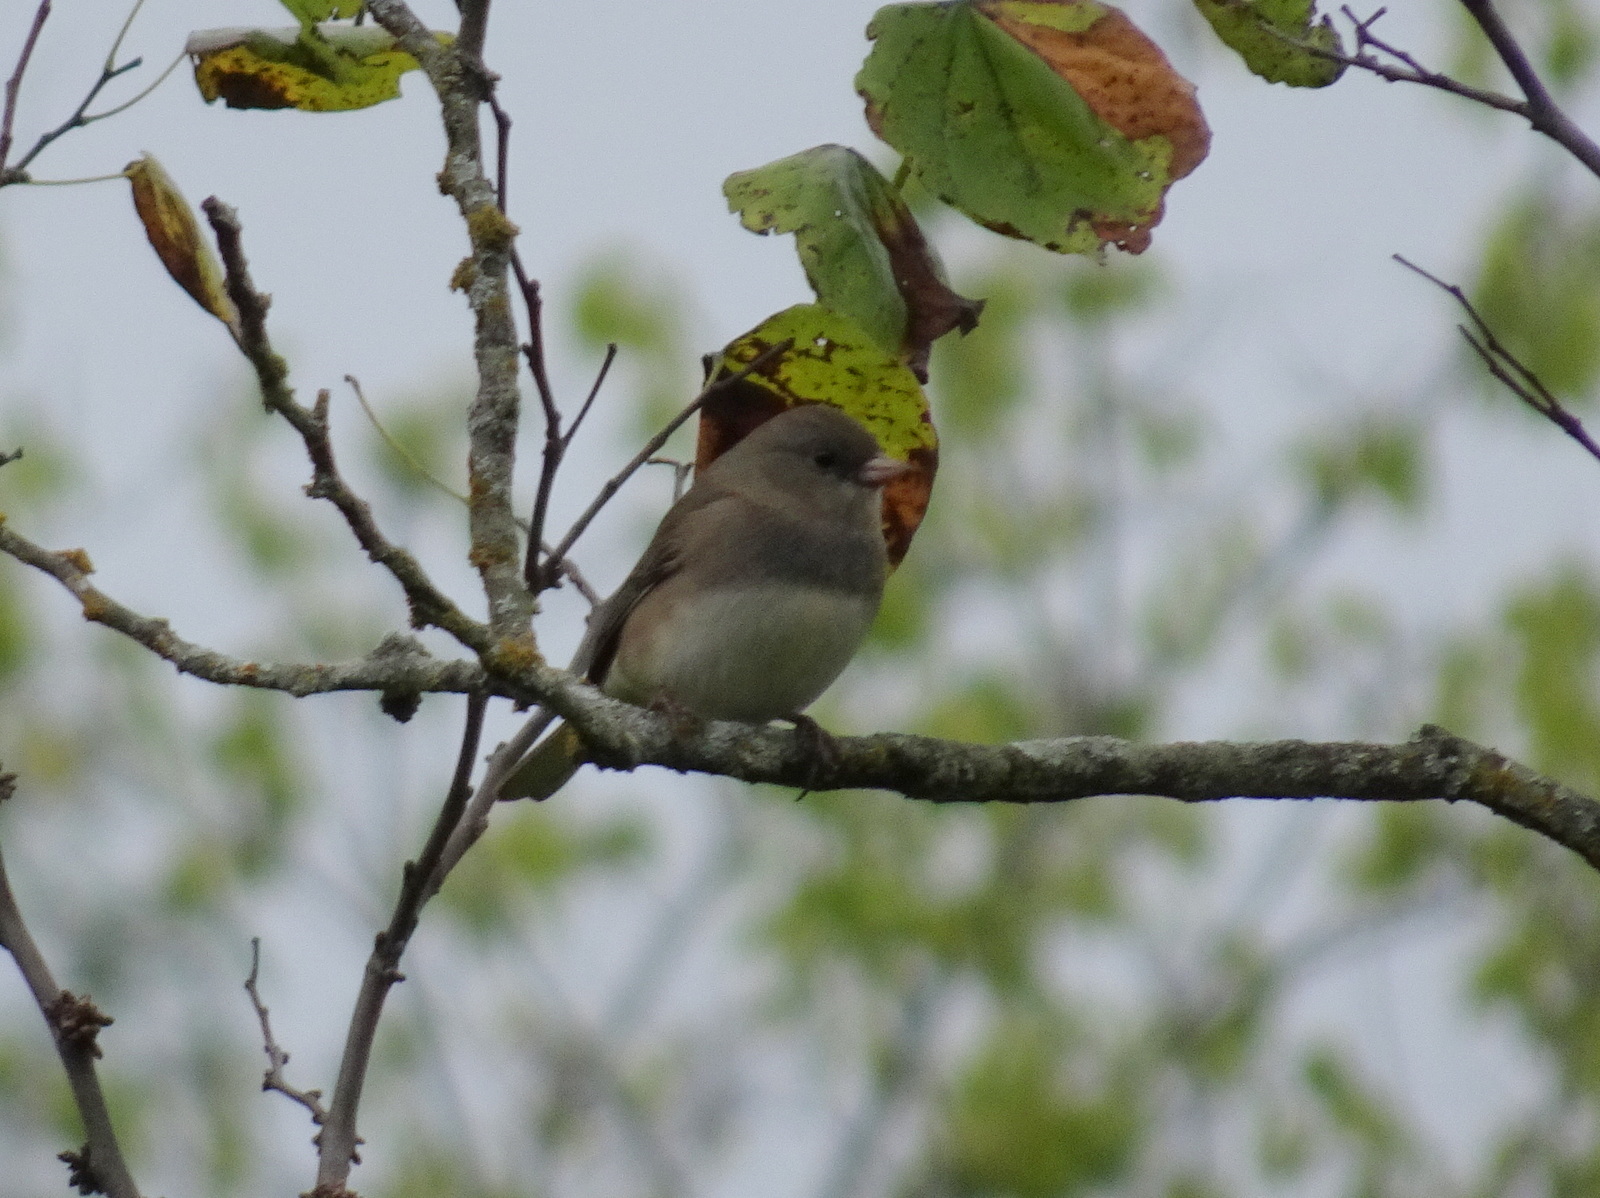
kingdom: Animalia
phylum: Chordata
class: Aves
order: Passeriformes
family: Passerellidae
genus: Junco
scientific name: Junco hyemalis
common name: Dark-eyed junco
